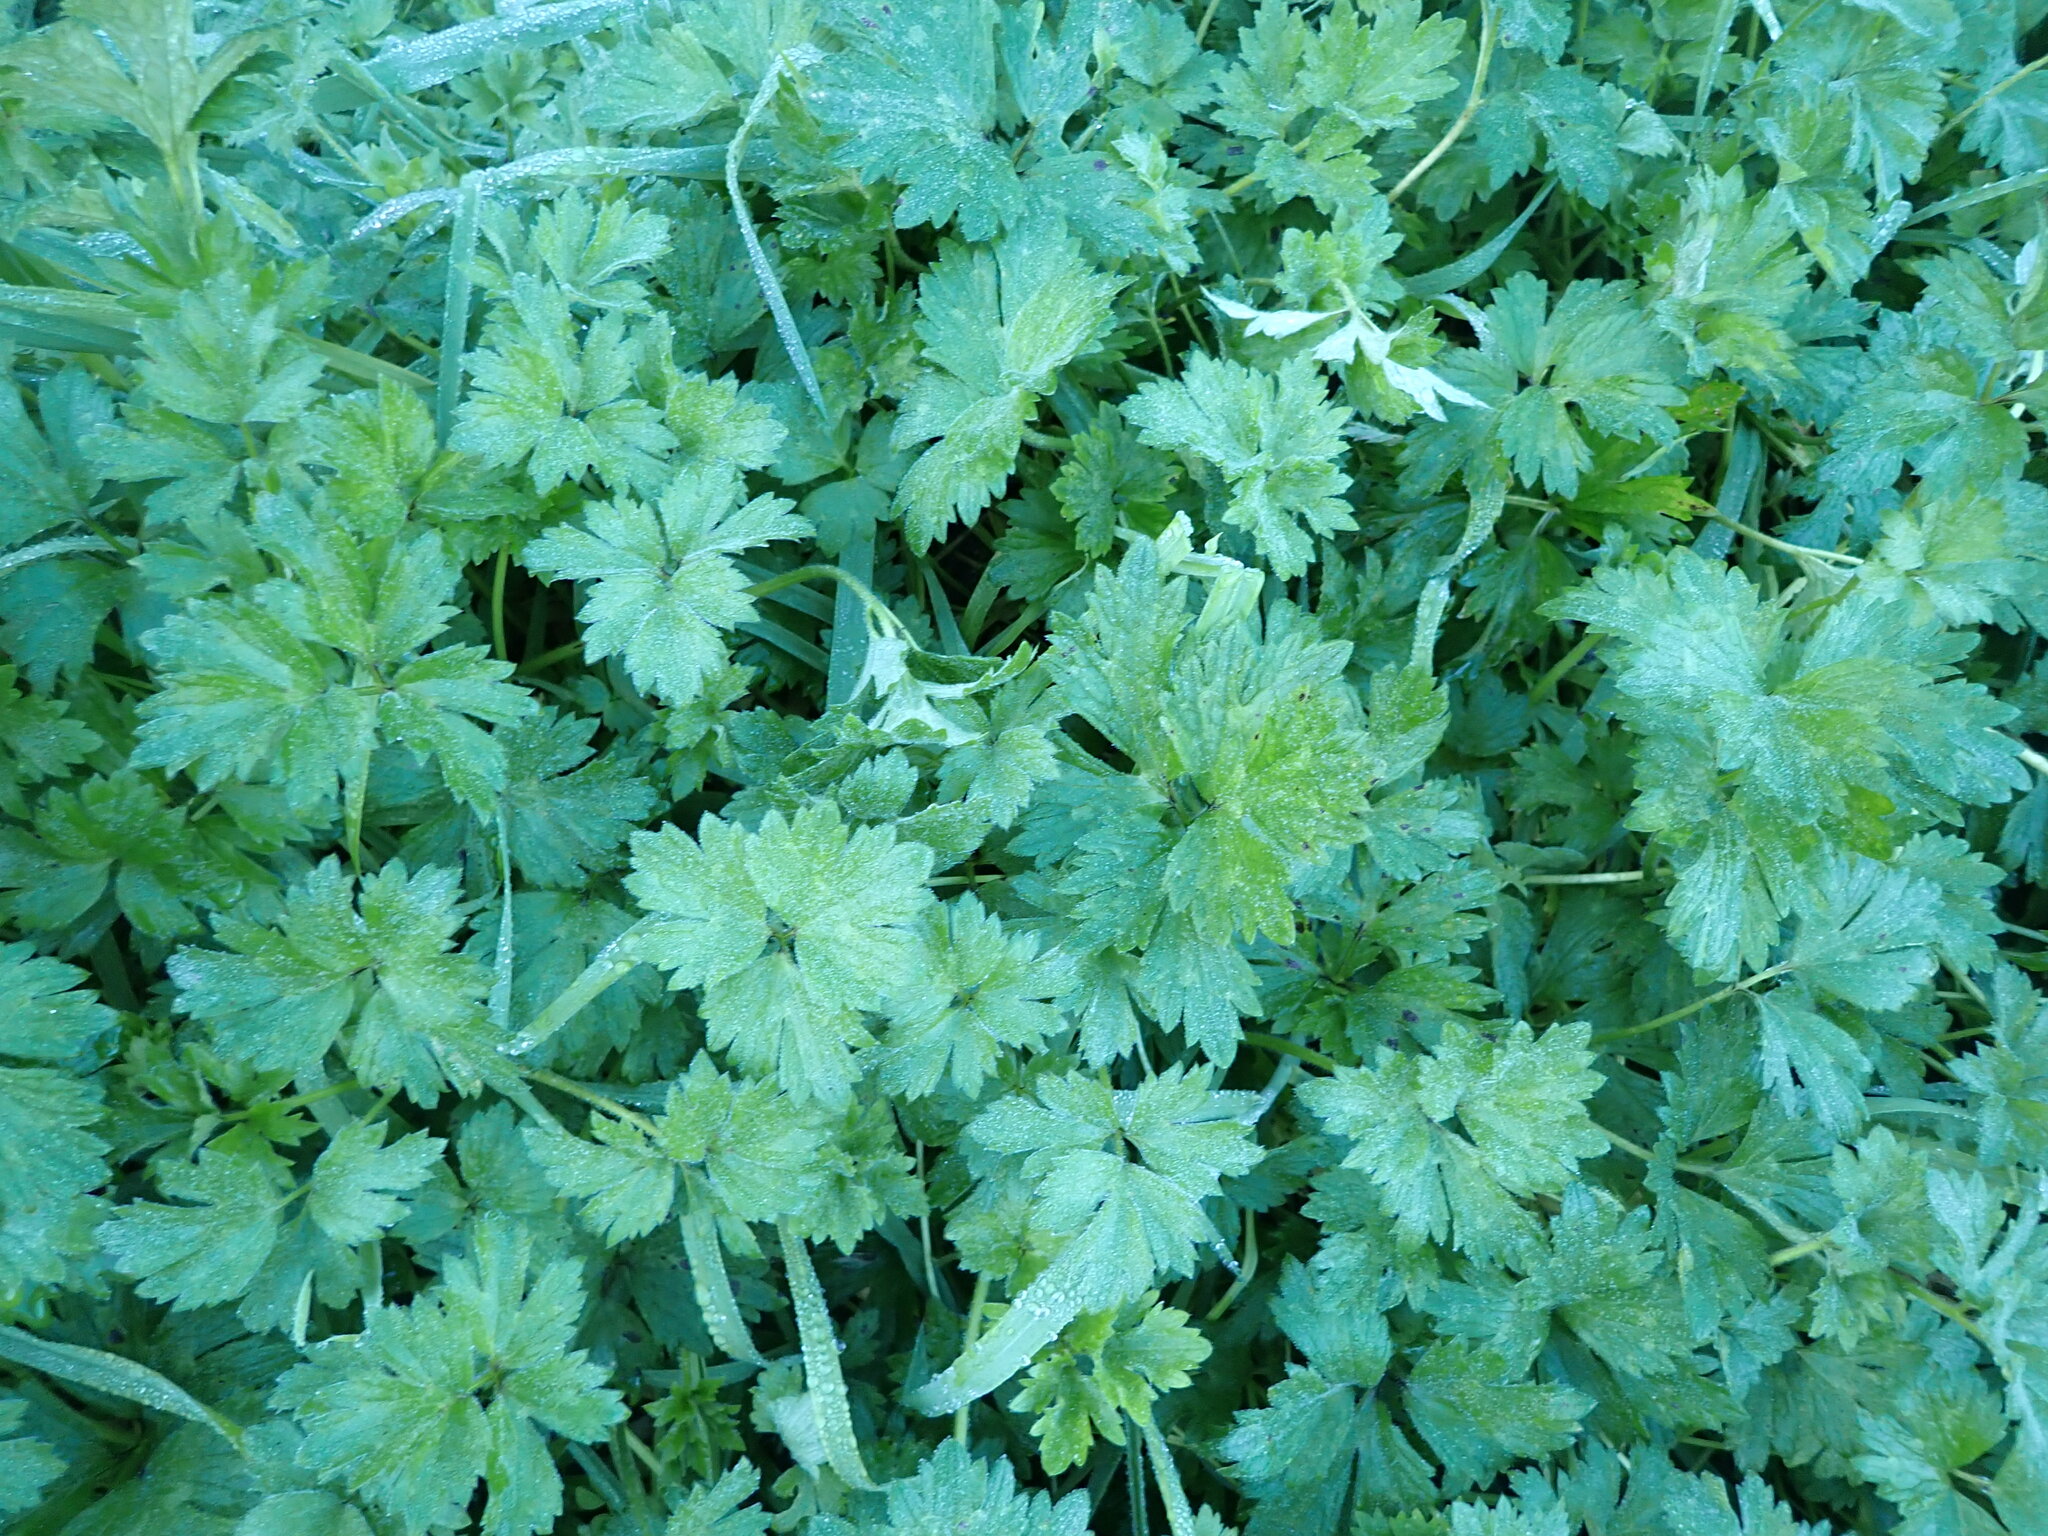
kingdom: Plantae
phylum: Tracheophyta
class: Magnoliopsida
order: Ranunculales
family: Ranunculaceae
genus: Ranunculus
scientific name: Ranunculus repens
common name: Creeping buttercup
